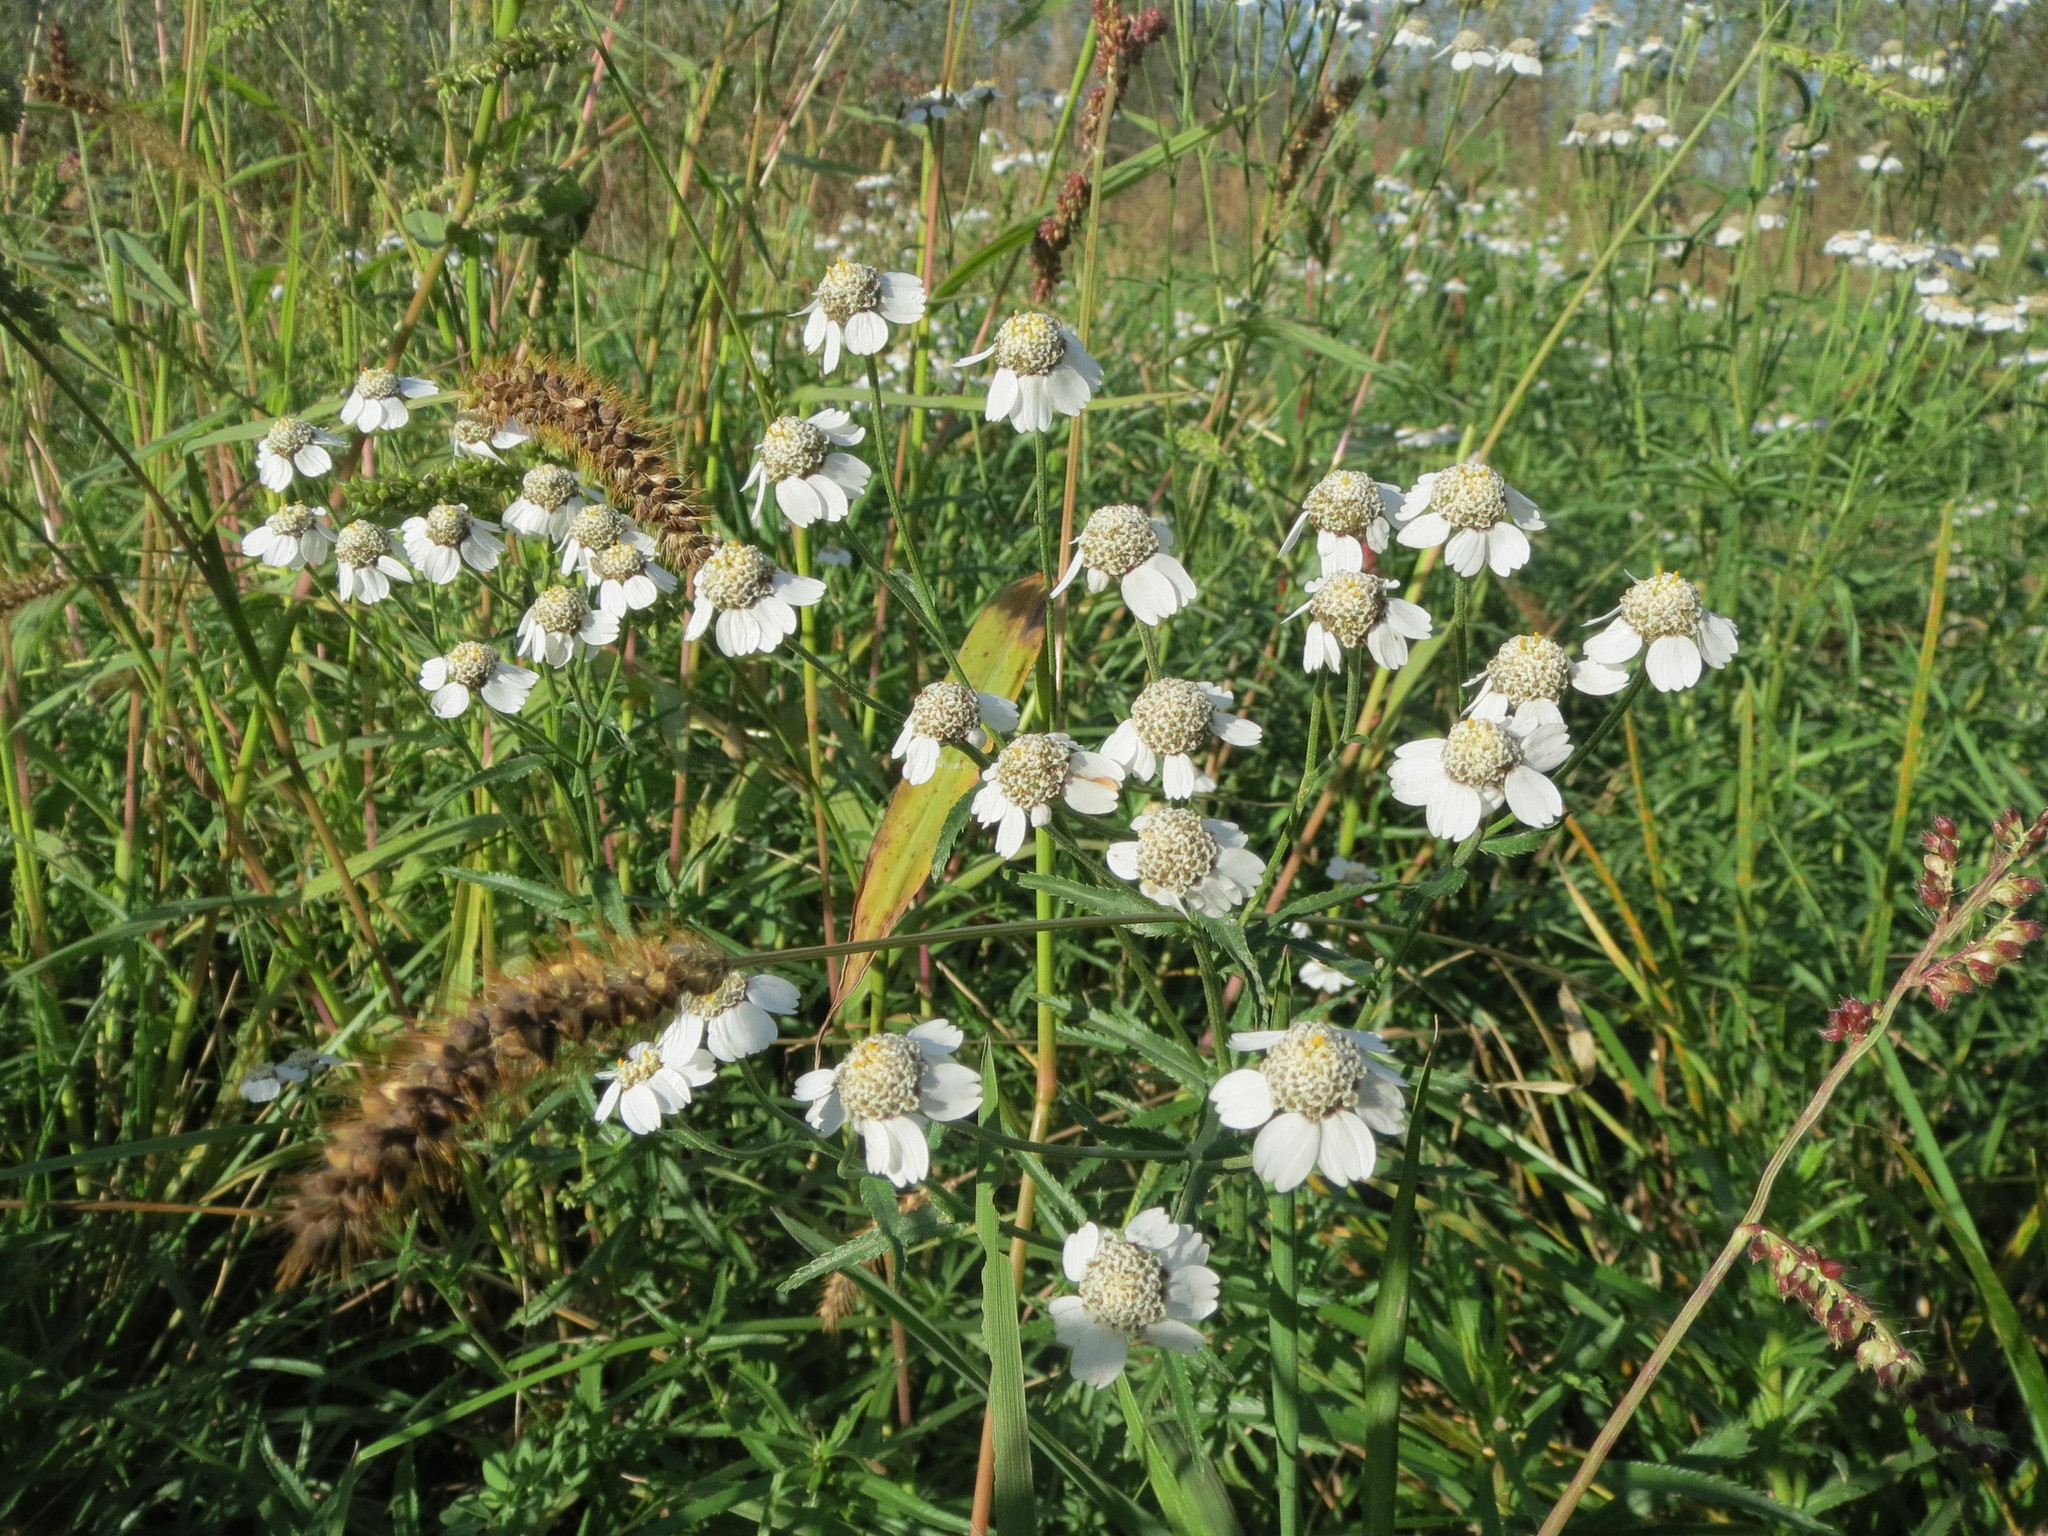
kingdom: Plantae
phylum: Tracheophyta
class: Magnoliopsida
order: Asterales
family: Asteraceae
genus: Achillea
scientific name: Achillea ptarmica
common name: Sneezeweed
